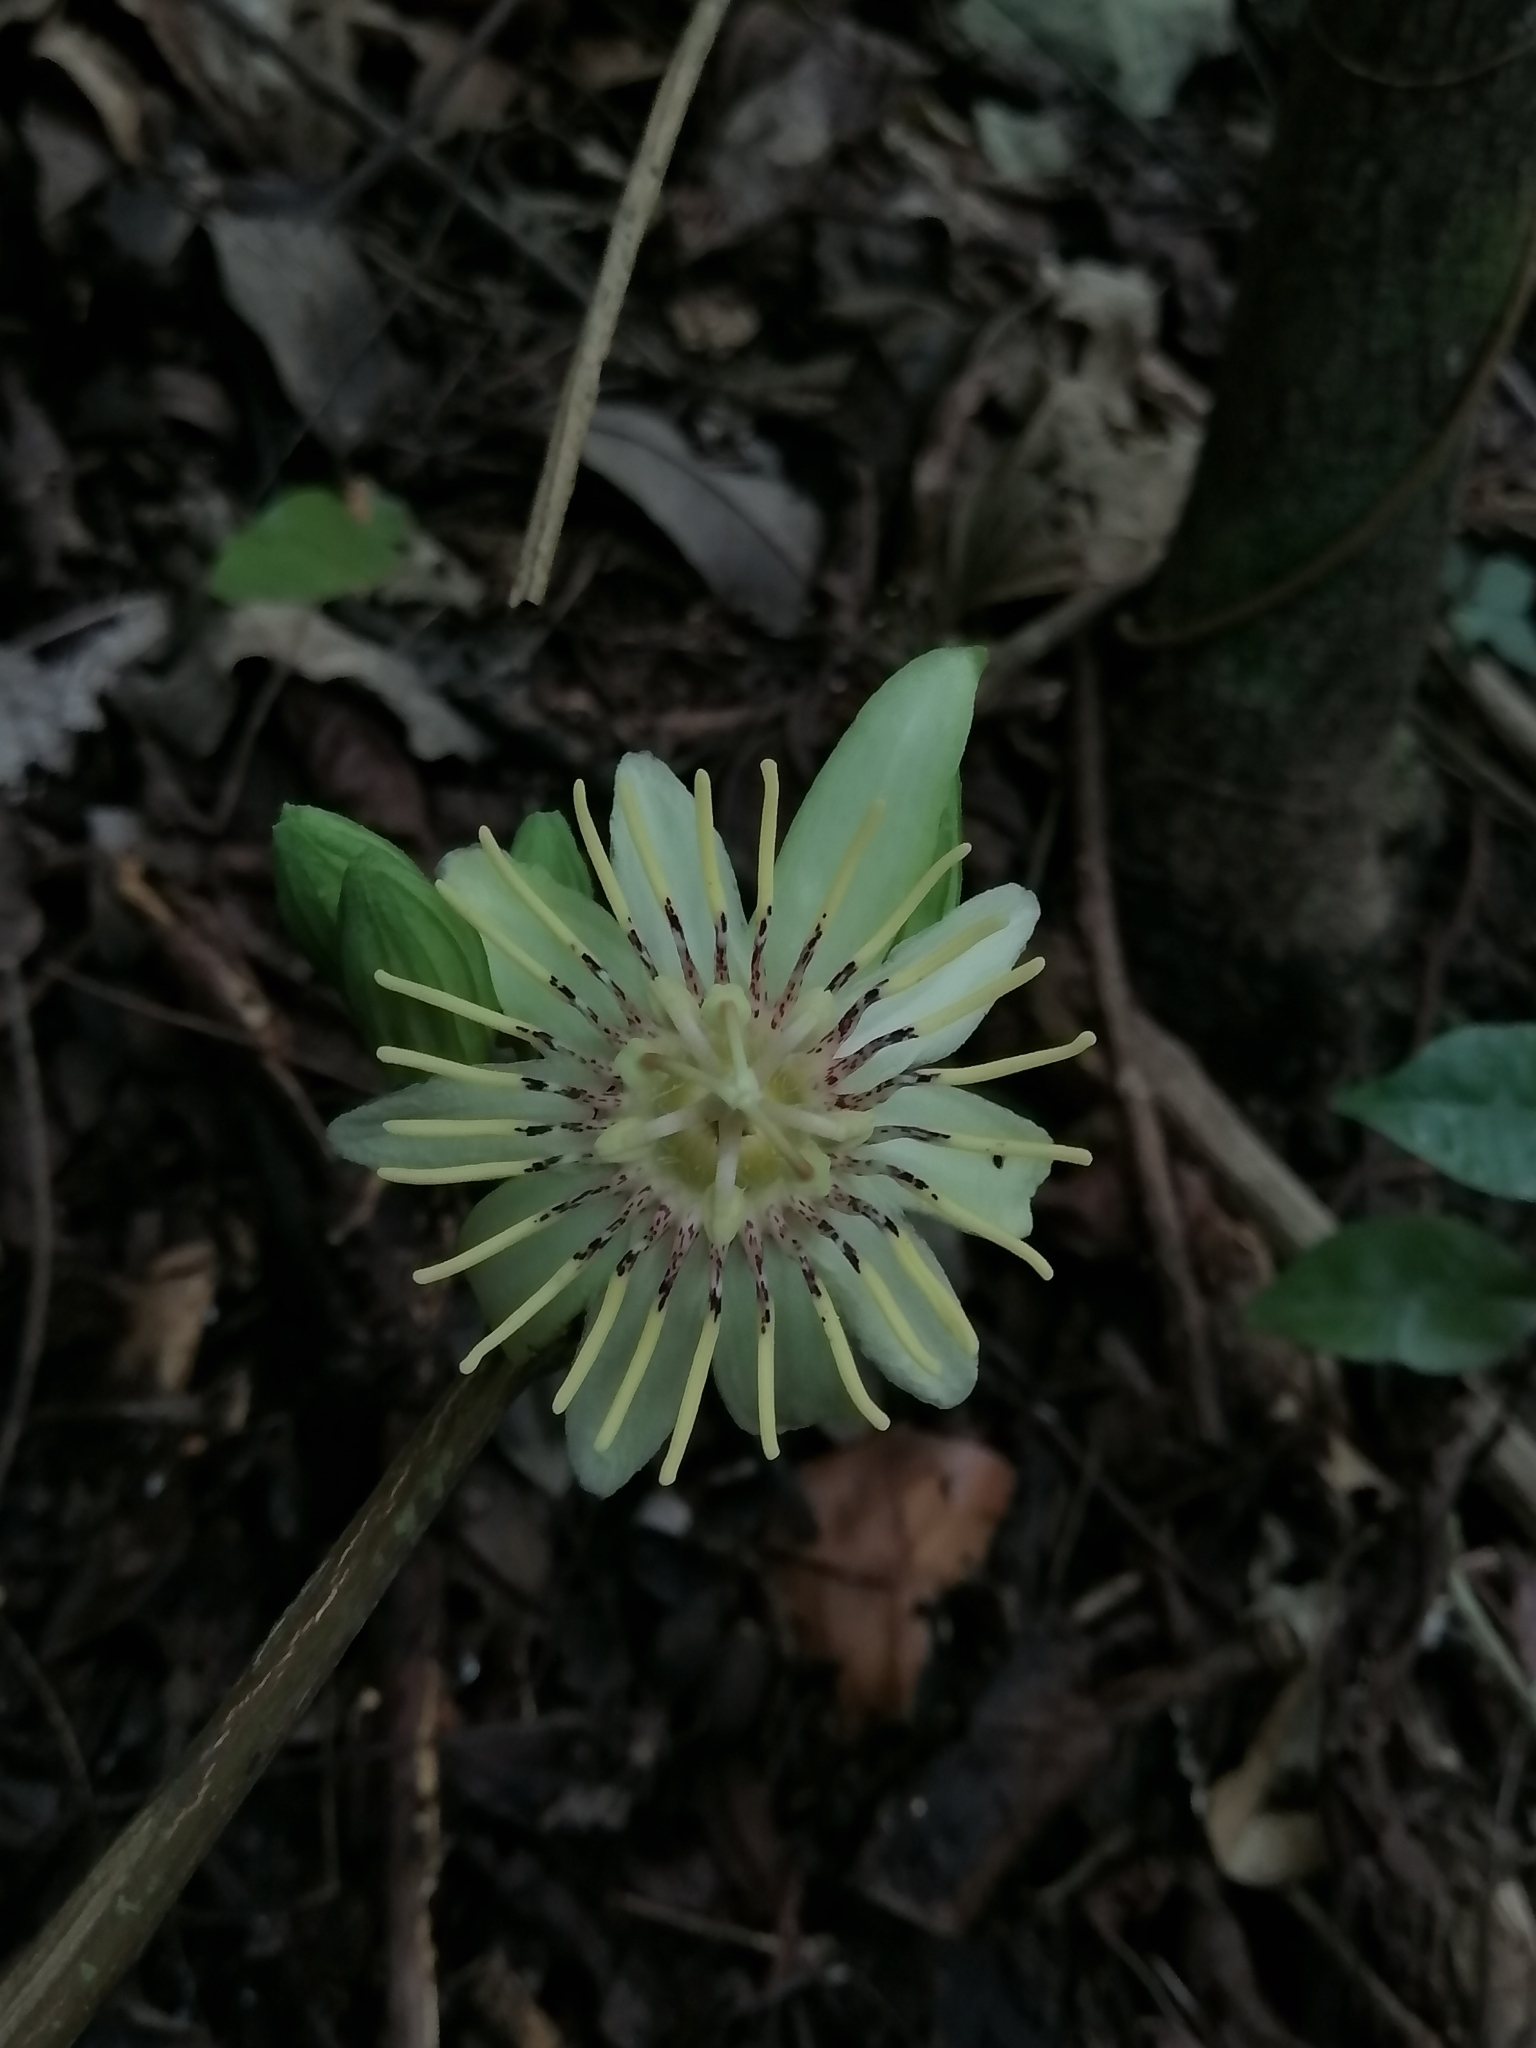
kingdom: Plantae
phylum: Tracheophyta
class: Magnoliopsida
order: Malpighiales
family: Passifloraceae
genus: Passiflora
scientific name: Passiflora rovirosae
